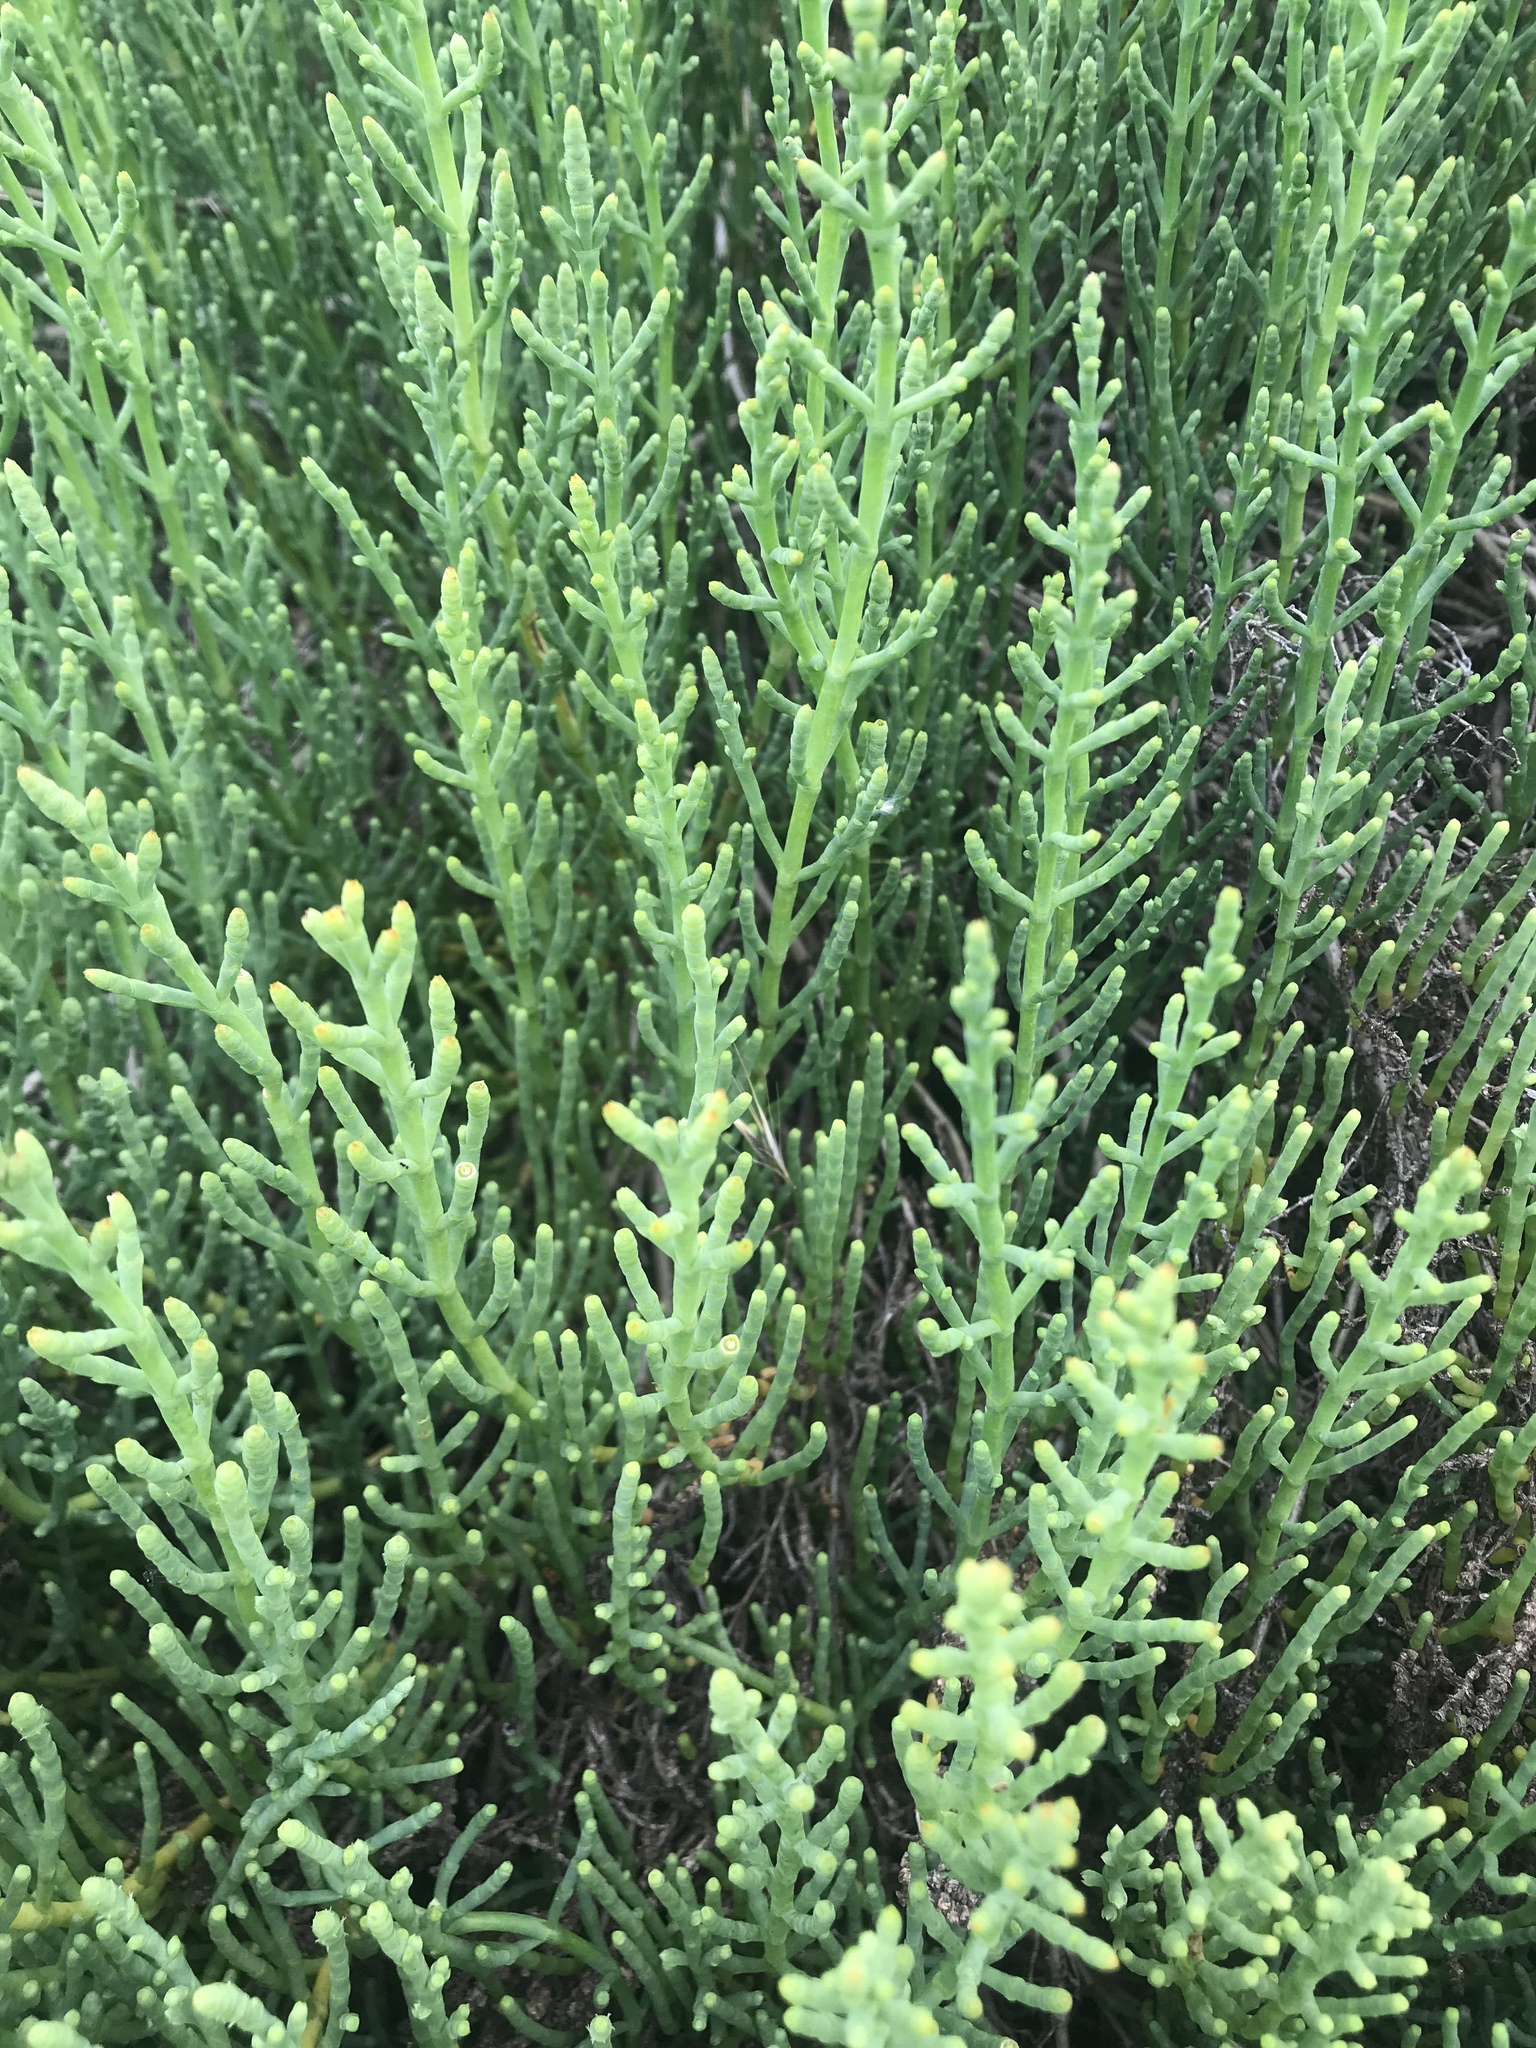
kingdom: Plantae
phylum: Tracheophyta
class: Magnoliopsida
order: Caryophyllales
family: Amaranthaceae
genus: Salicornia
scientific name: Salicornia pacifica
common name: Pacific glasswort
